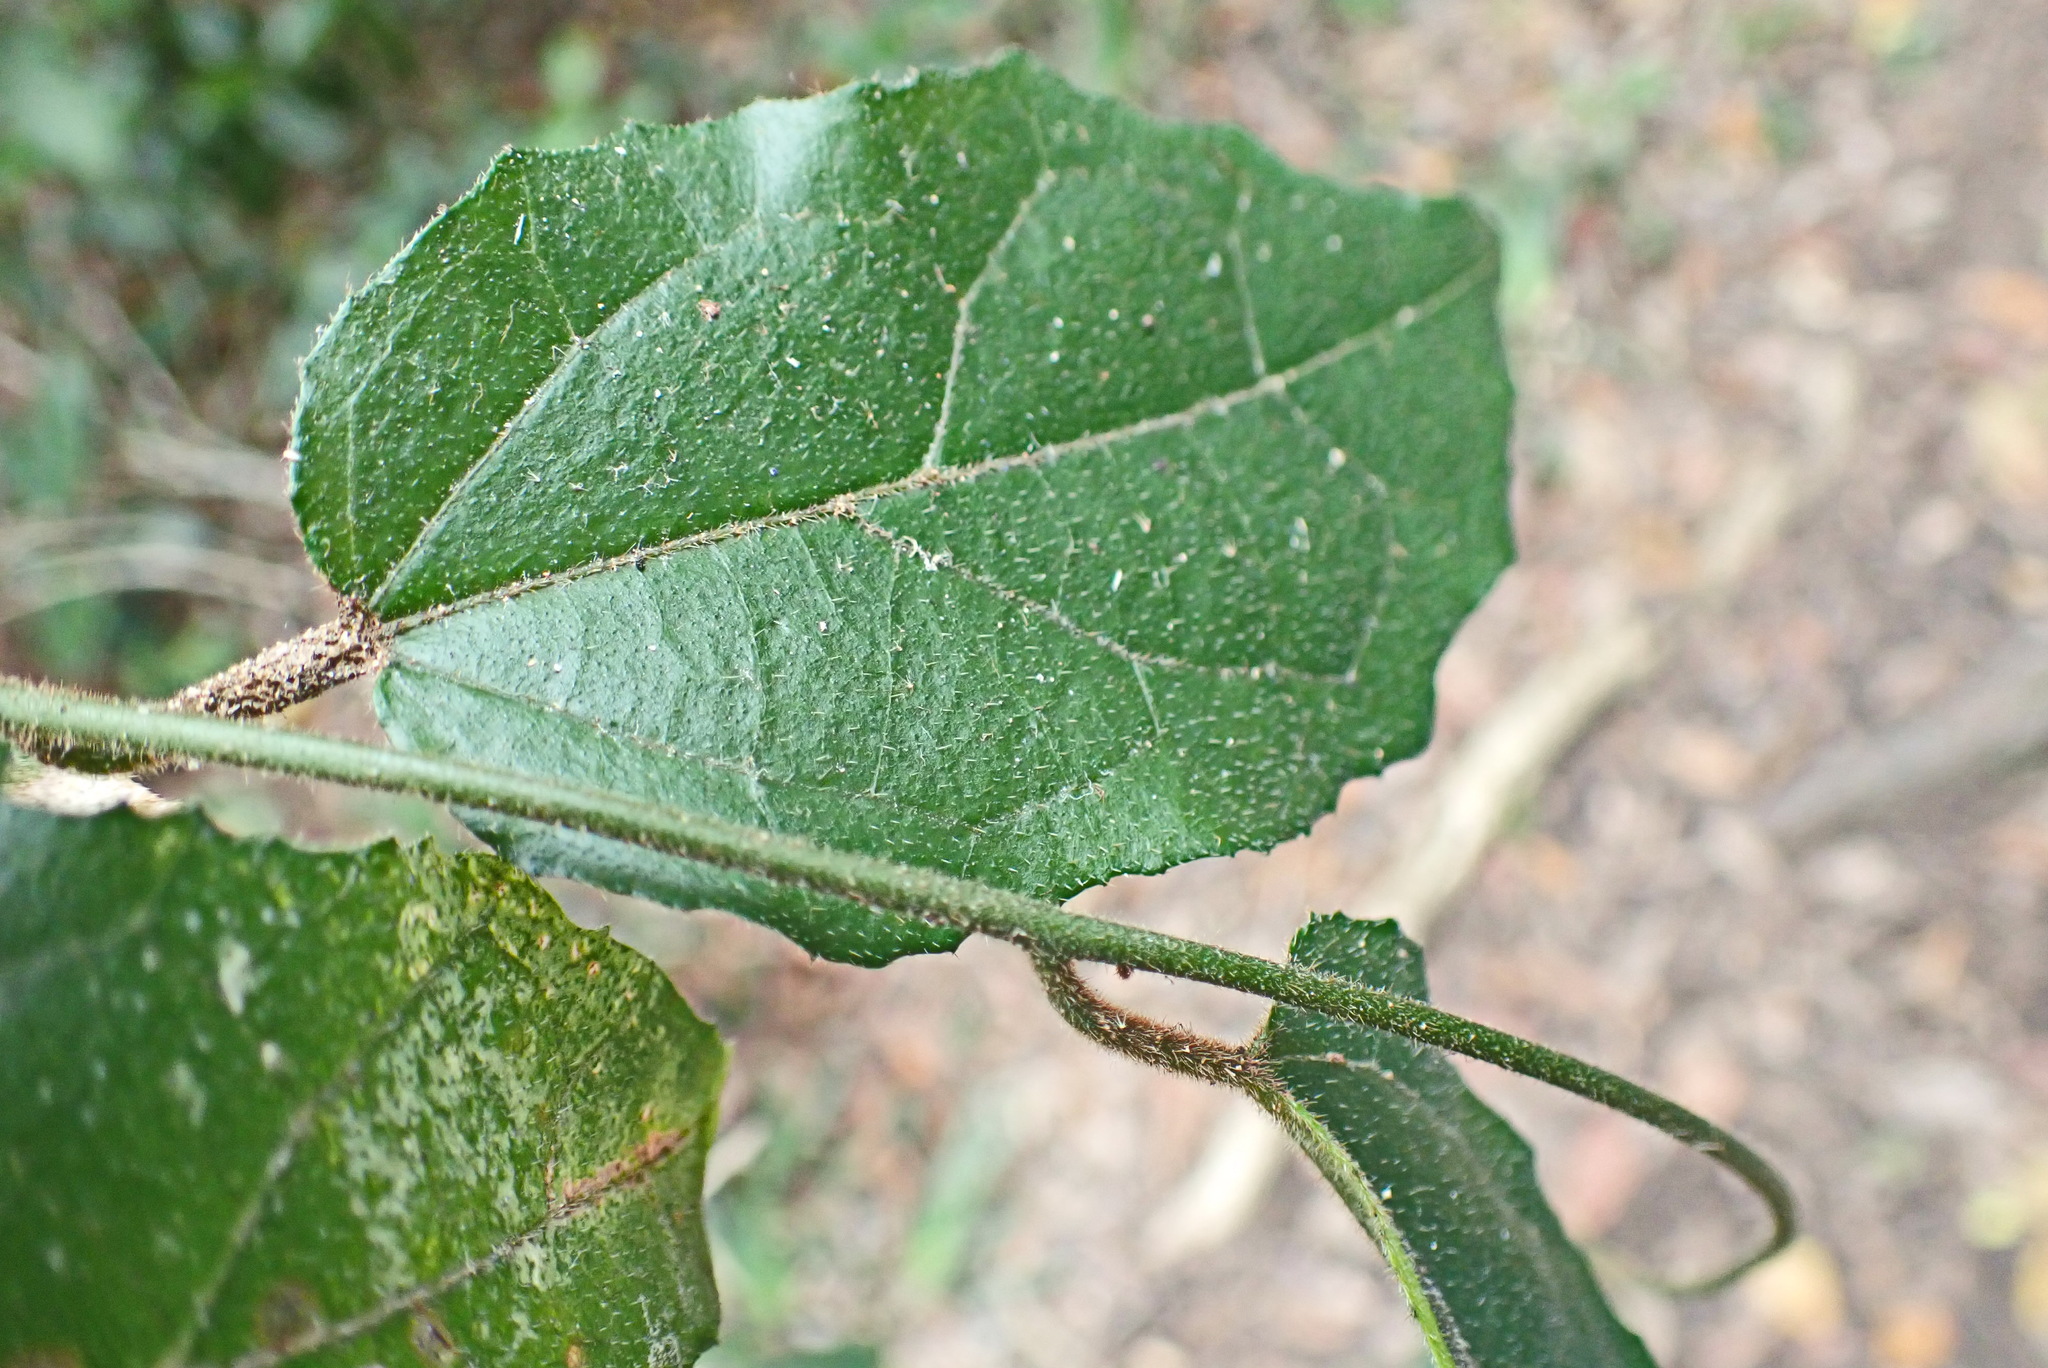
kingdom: Plantae
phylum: Tracheophyta
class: Magnoliopsida
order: Icacinales
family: Icacinaceae
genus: Pyrenacantha
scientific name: Pyrenacantha scandens
